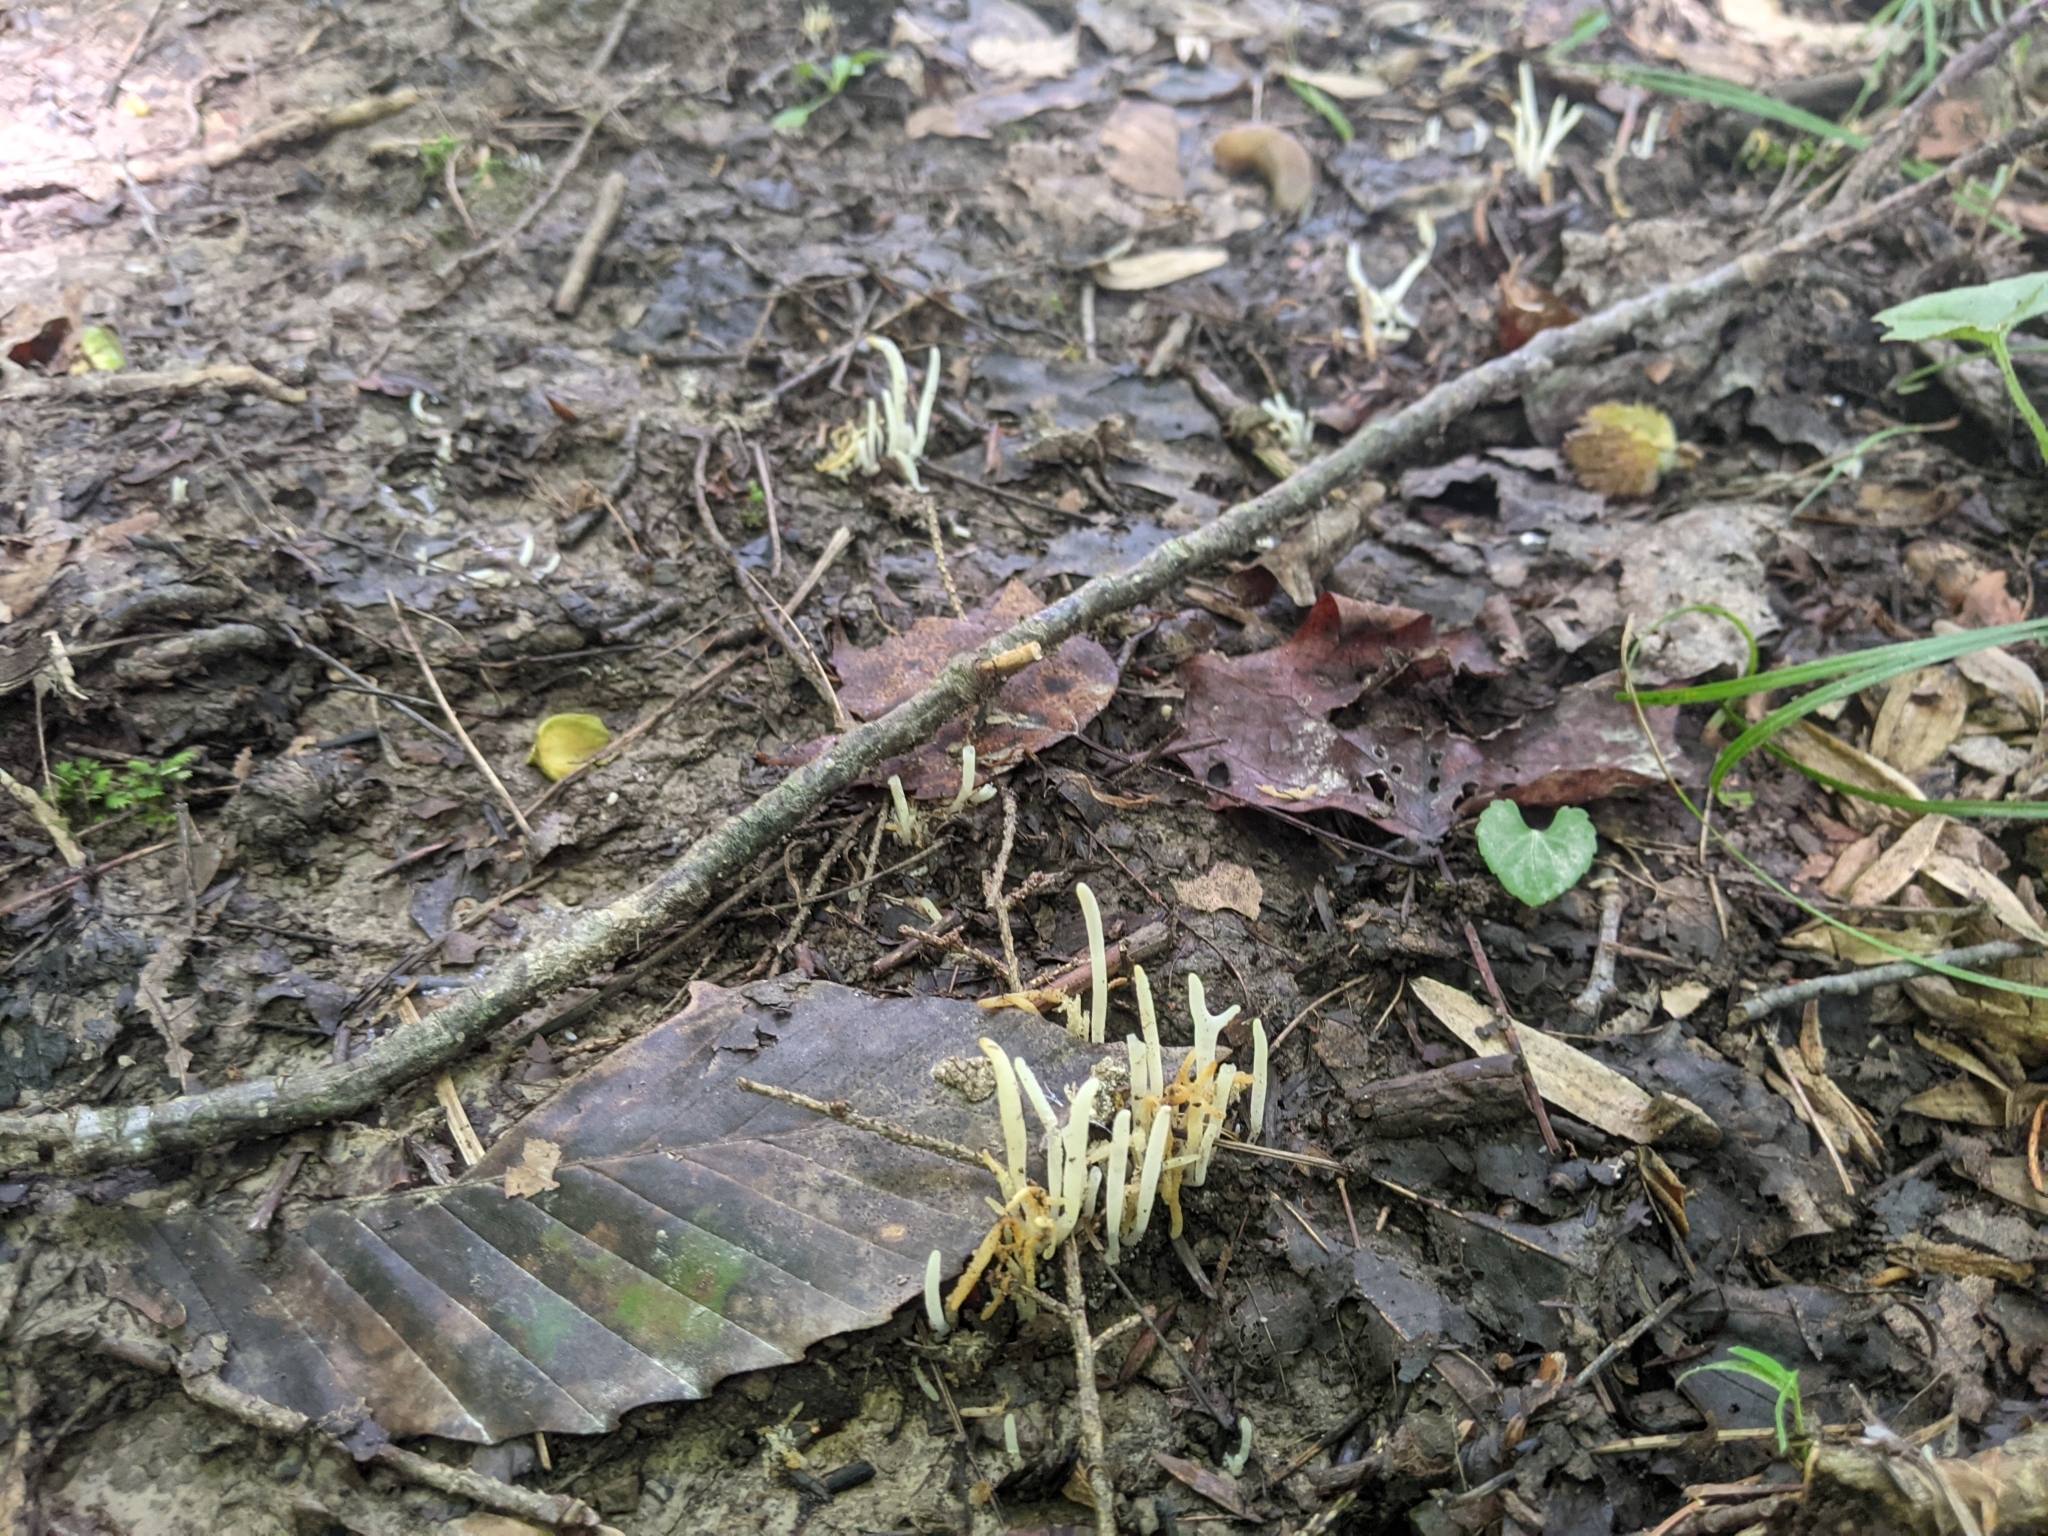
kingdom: Fungi
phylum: Basidiomycota
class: Agaricomycetes
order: Agaricales
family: Clavariaceae
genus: Clavaria
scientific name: Clavaria fragilis
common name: White spindles
